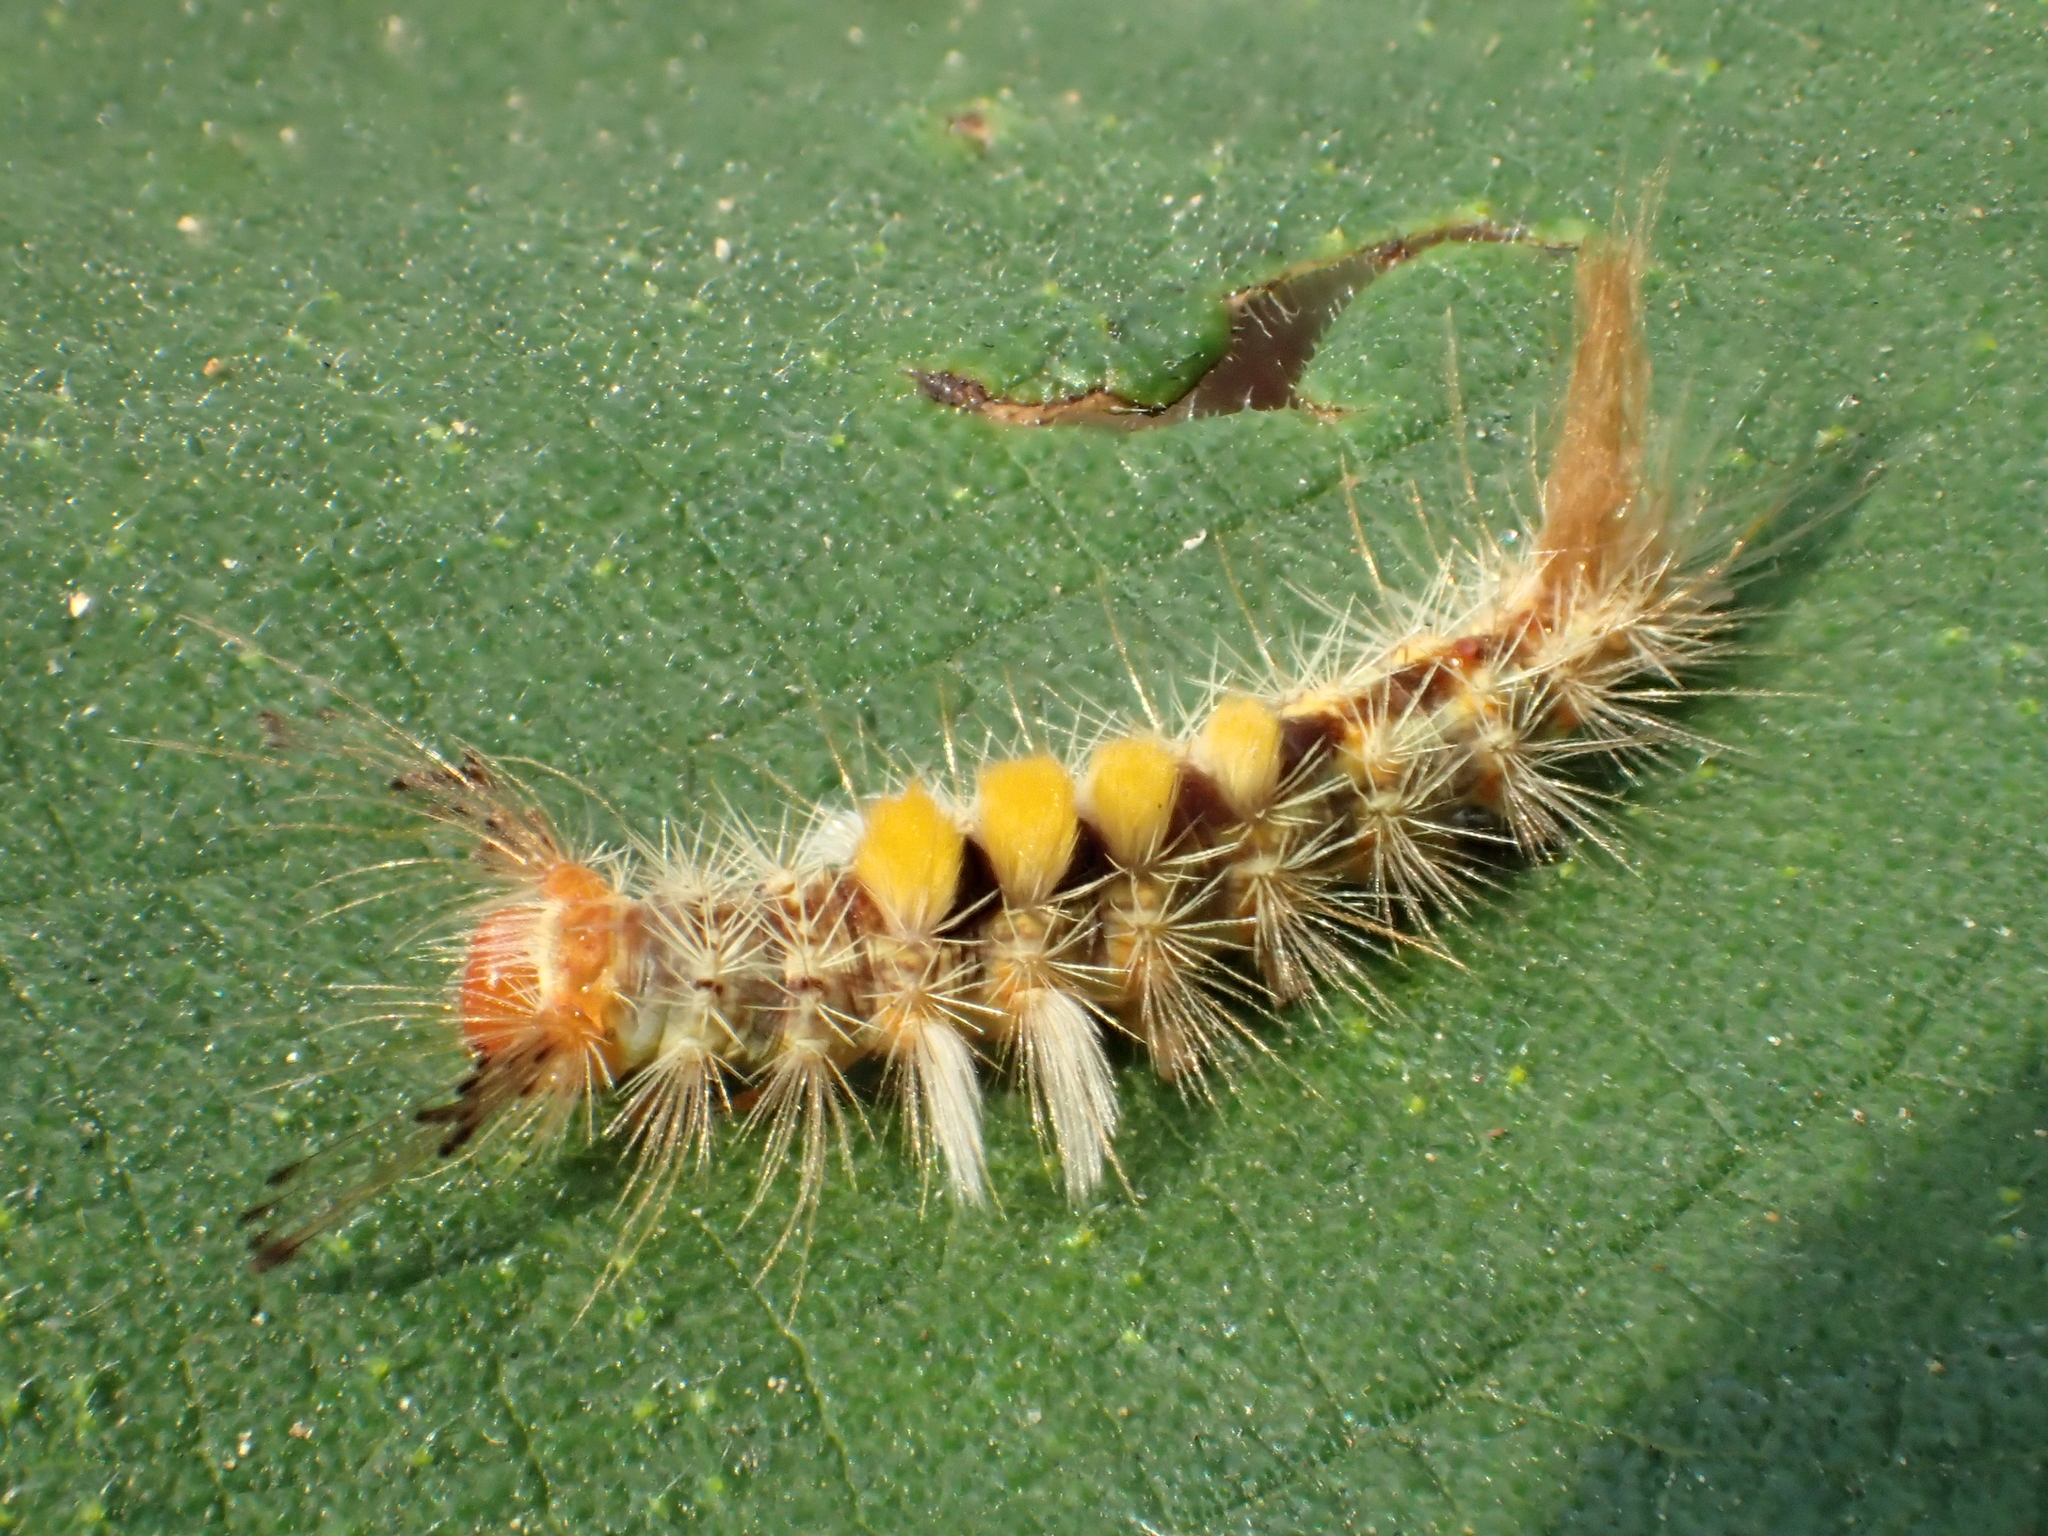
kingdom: Animalia
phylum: Arthropoda
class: Insecta
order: Lepidoptera
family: Erebidae
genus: Orgyia
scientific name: Orgyia postica
